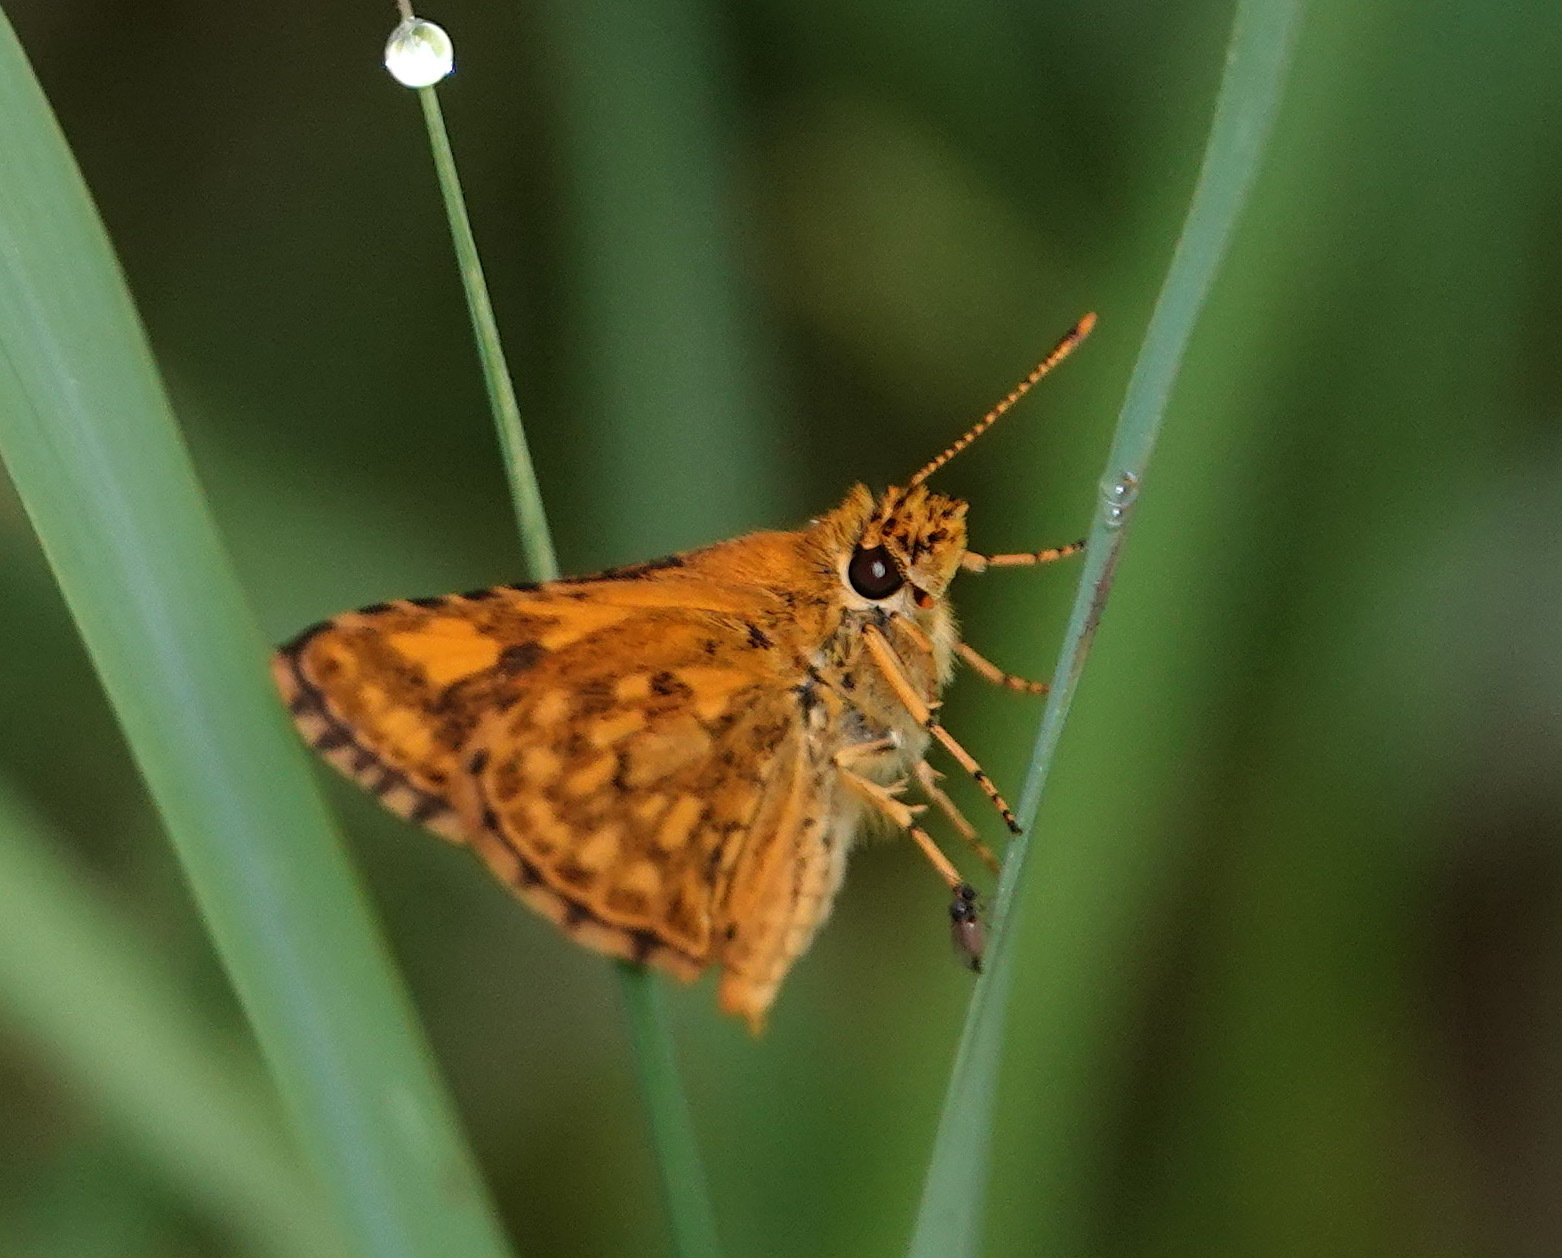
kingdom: Animalia
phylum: Arthropoda
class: Insecta
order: Lepidoptera
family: Hesperiidae
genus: Ampittia
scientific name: Ampittia dioscorides
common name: Common bush hopper
